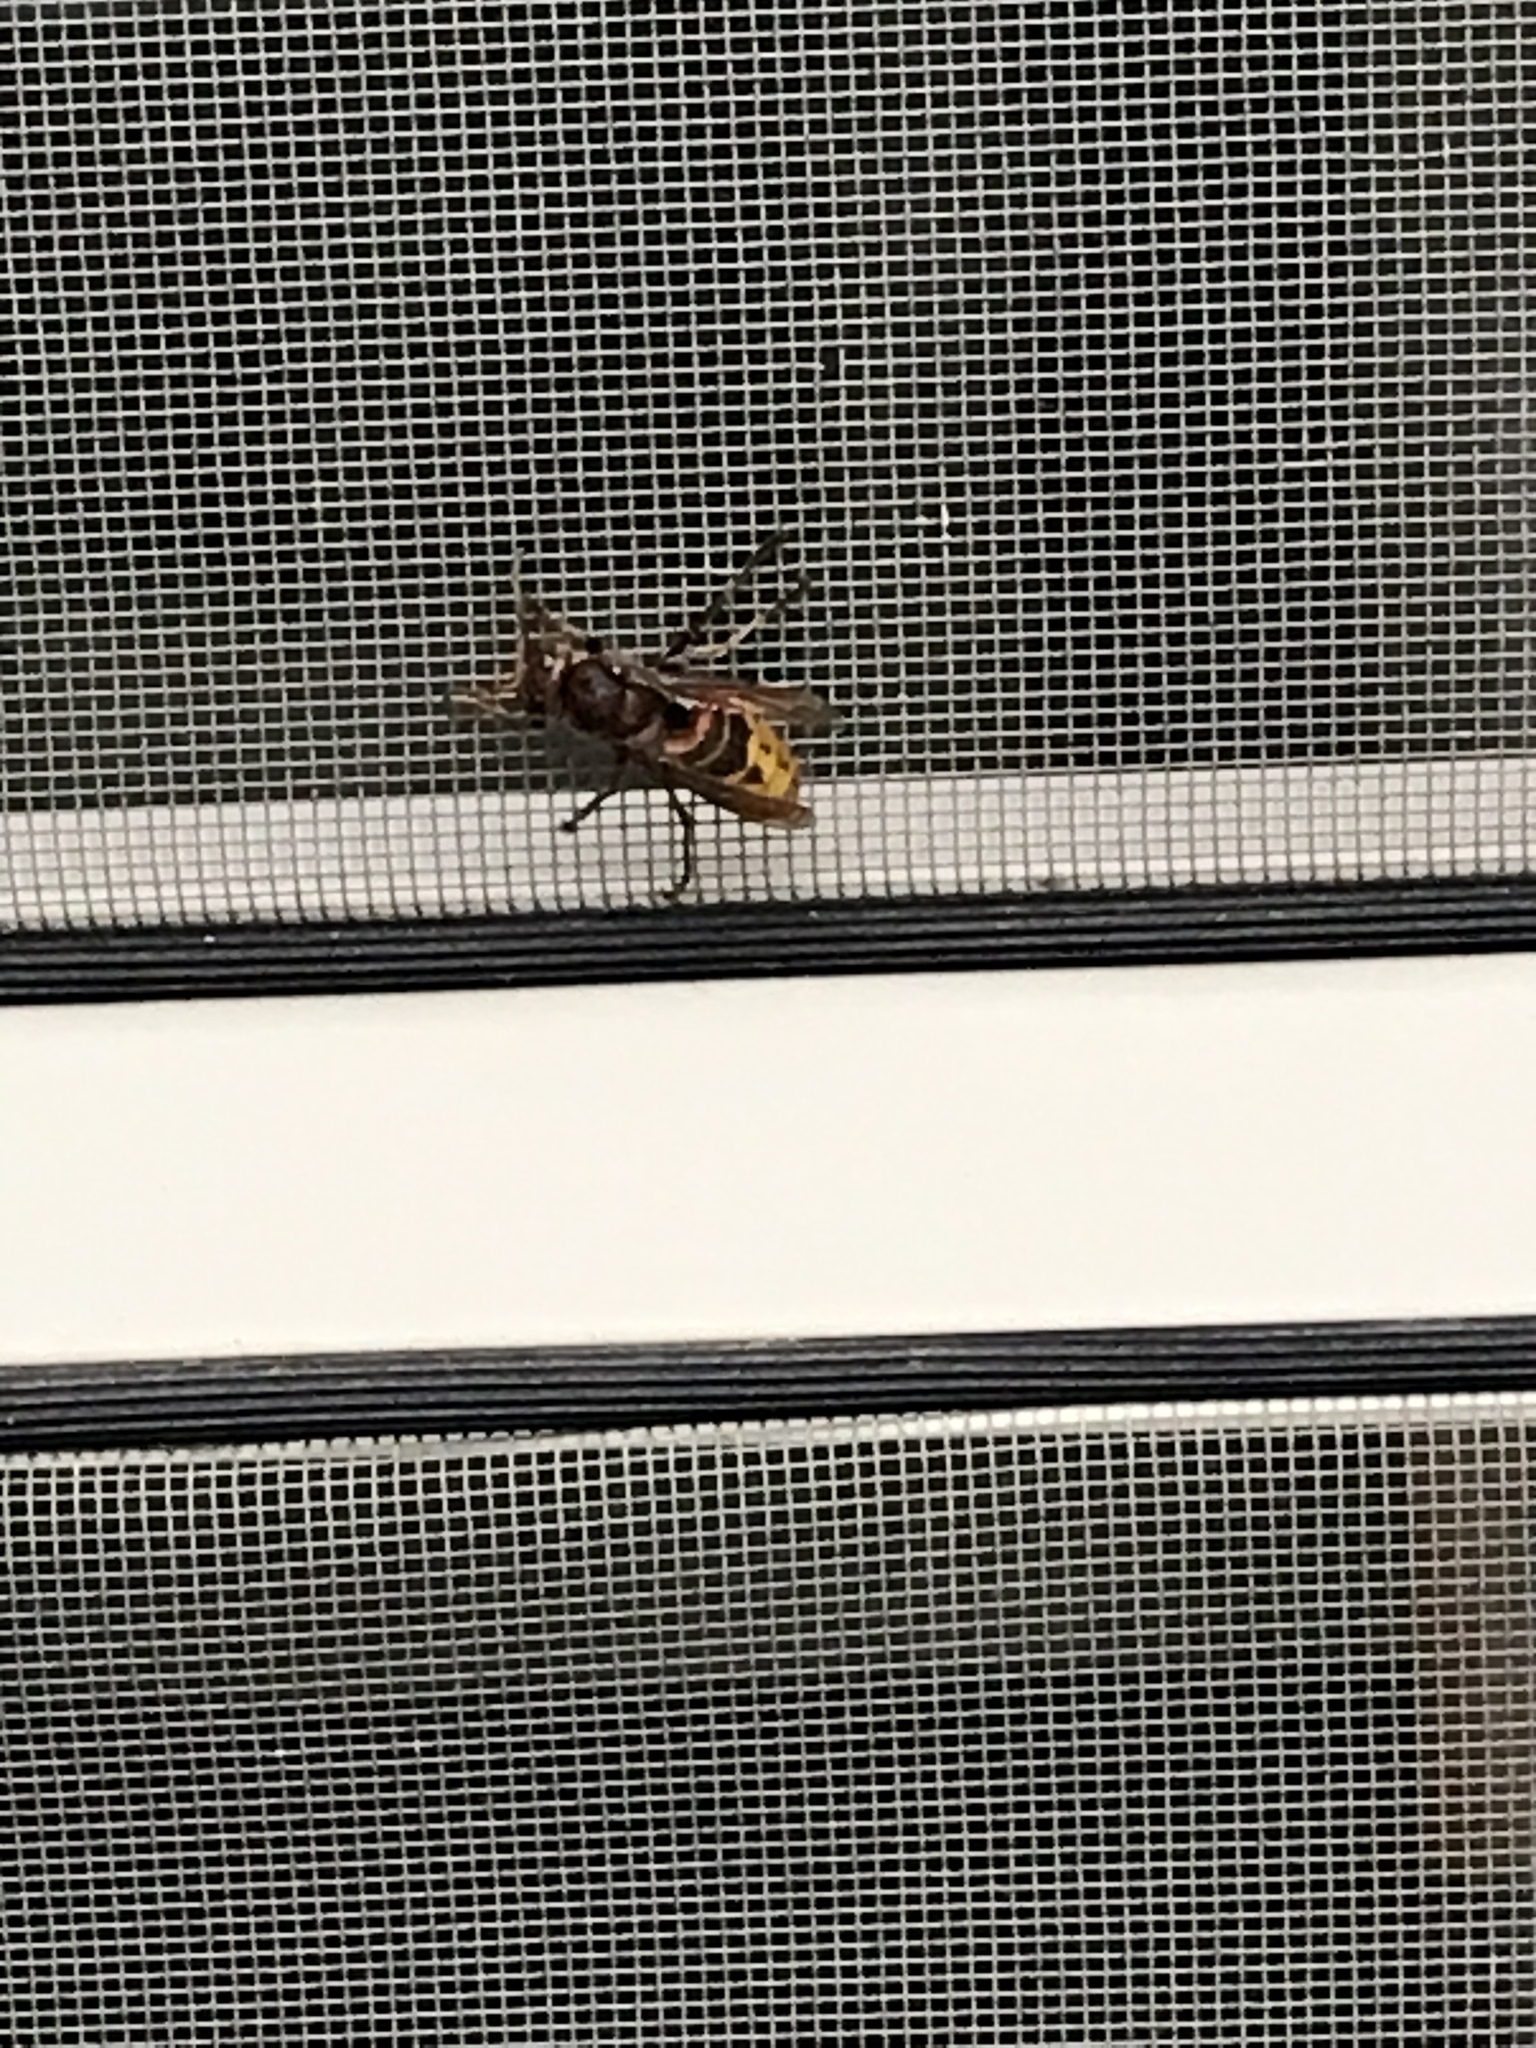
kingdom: Animalia
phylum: Arthropoda
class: Insecta
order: Hymenoptera
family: Vespidae
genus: Vespa
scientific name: Vespa crabro
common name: Hornet
